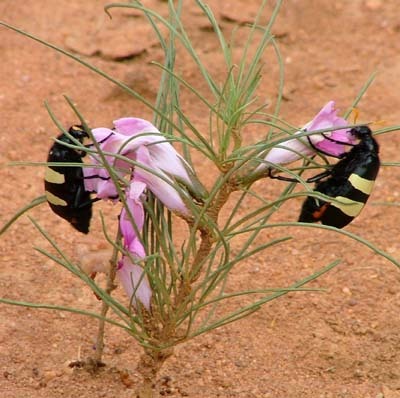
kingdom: Animalia
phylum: Arthropoda
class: Insecta
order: Coleoptera
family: Meloidae
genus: Hycleus
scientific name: Hycleus
